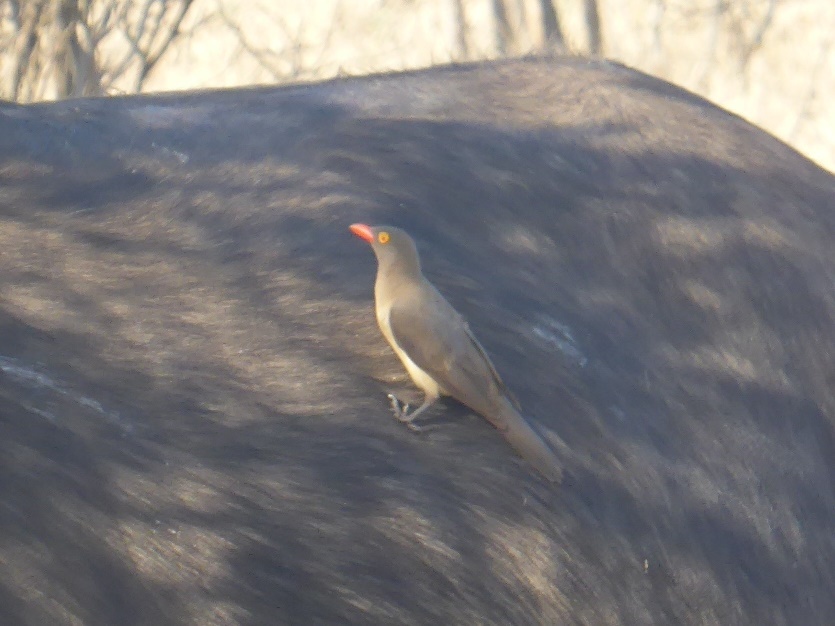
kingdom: Animalia
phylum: Chordata
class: Aves
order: Passeriformes
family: Buphagidae
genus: Buphagus
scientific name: Buphagus erythrorhynchus
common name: Red-billed oxpecker
